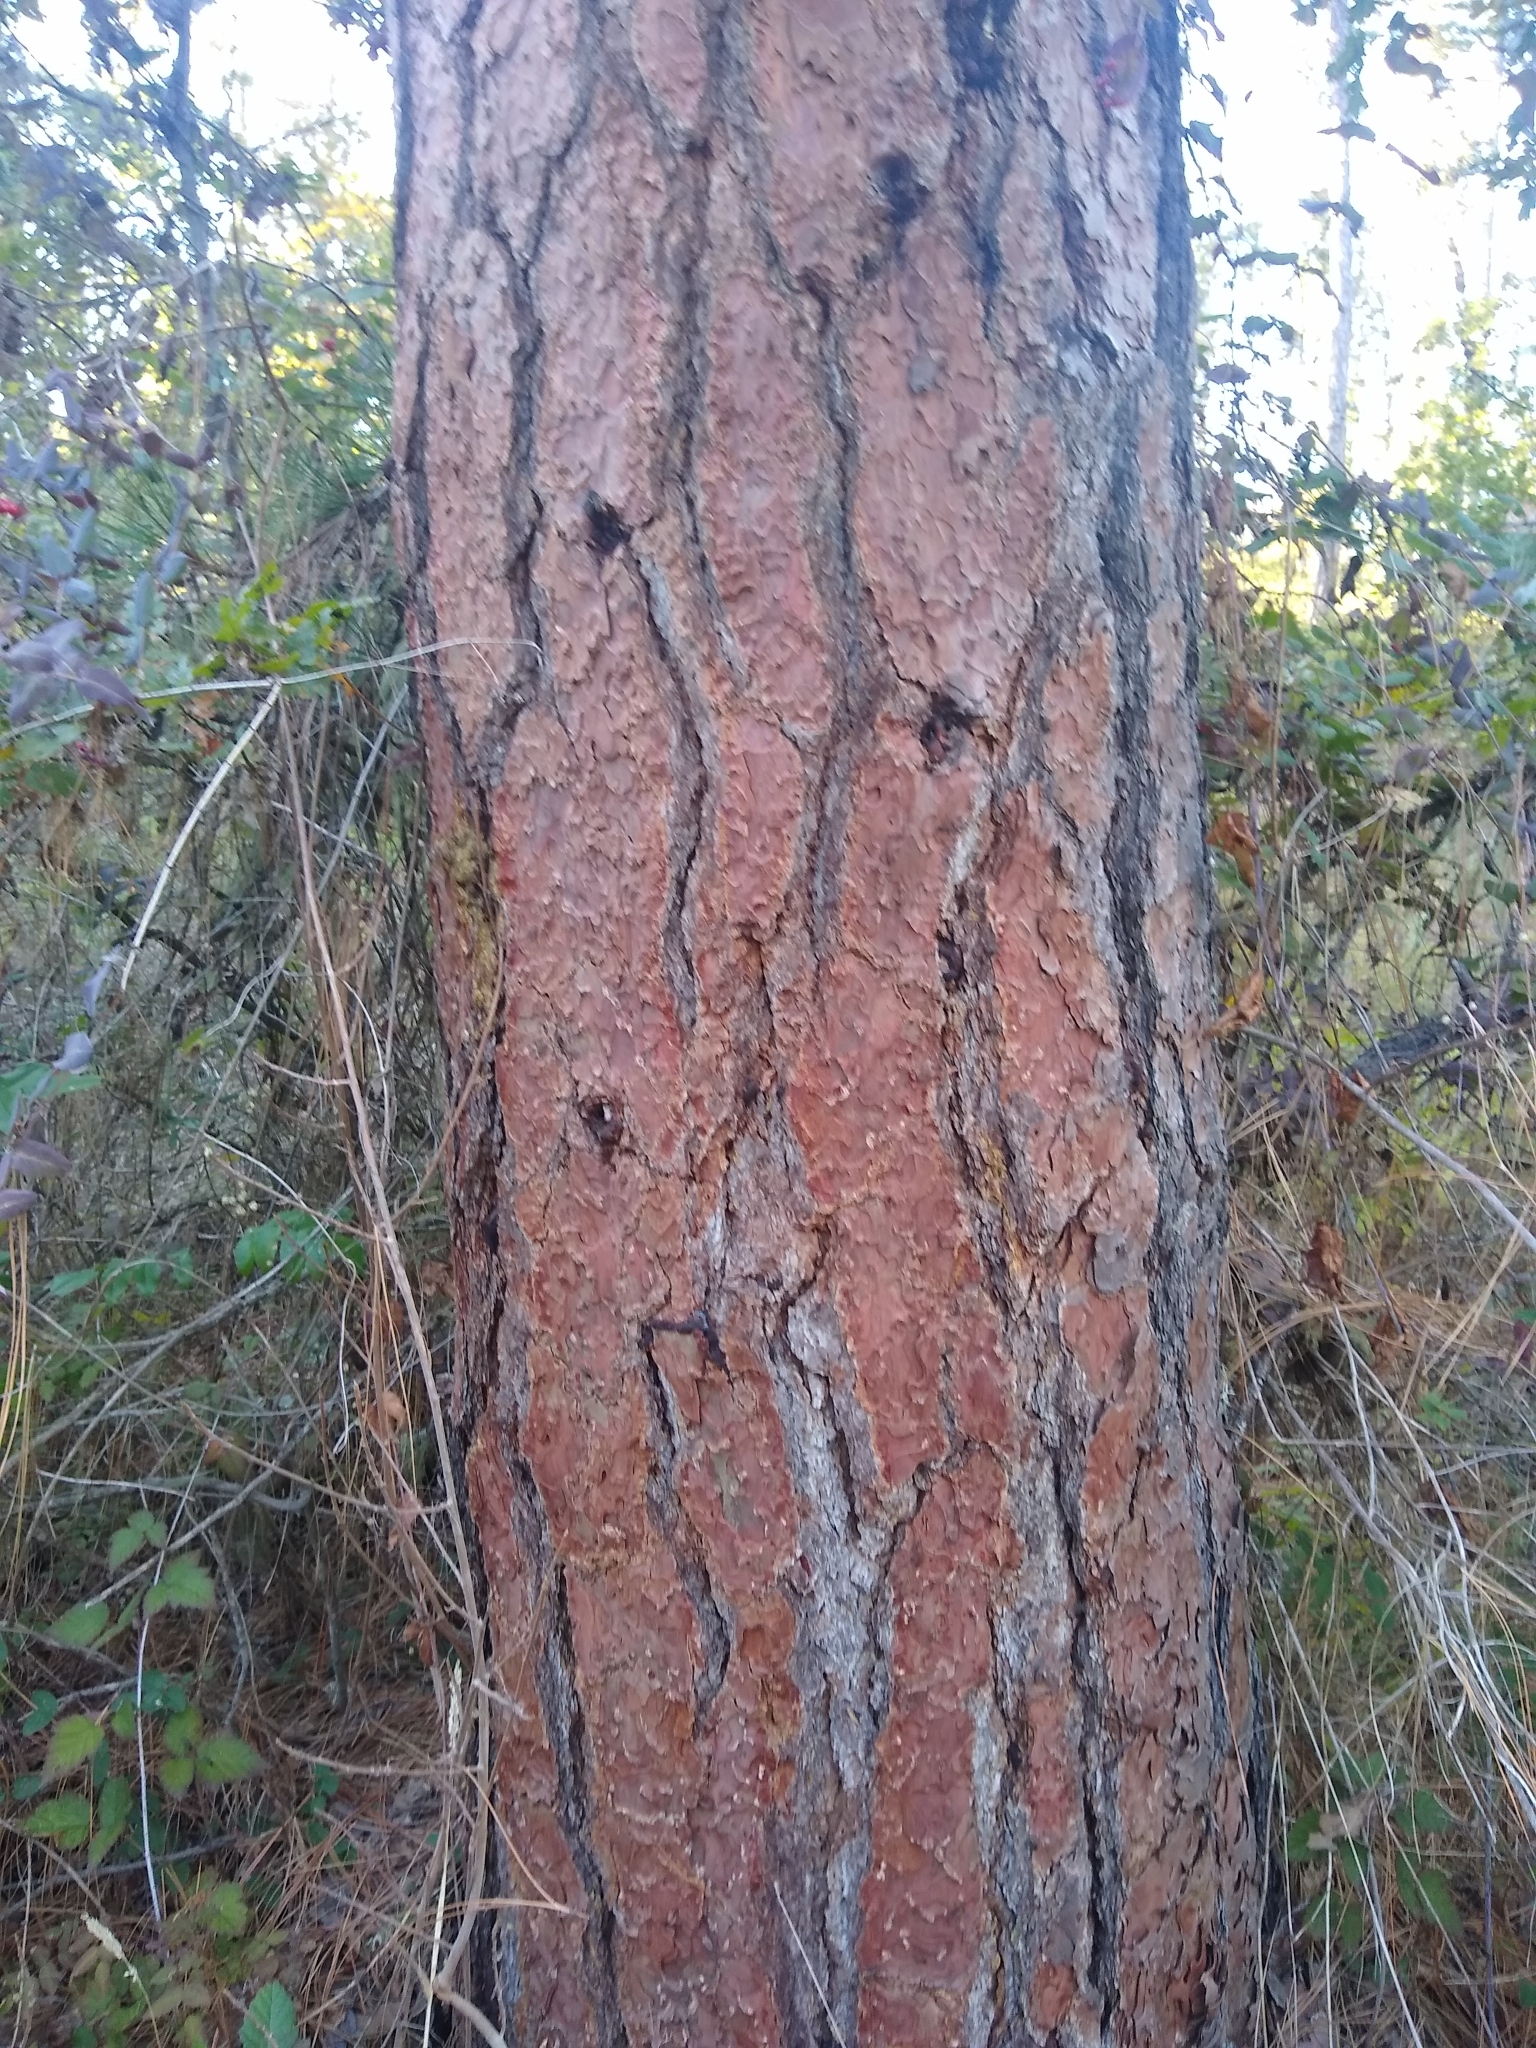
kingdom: Plantae
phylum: Tracheophyta
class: Pinopsida
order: Pinales
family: Pinaceae
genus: Pinus
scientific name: Pinus ponderosa
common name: Western yellow-pine
